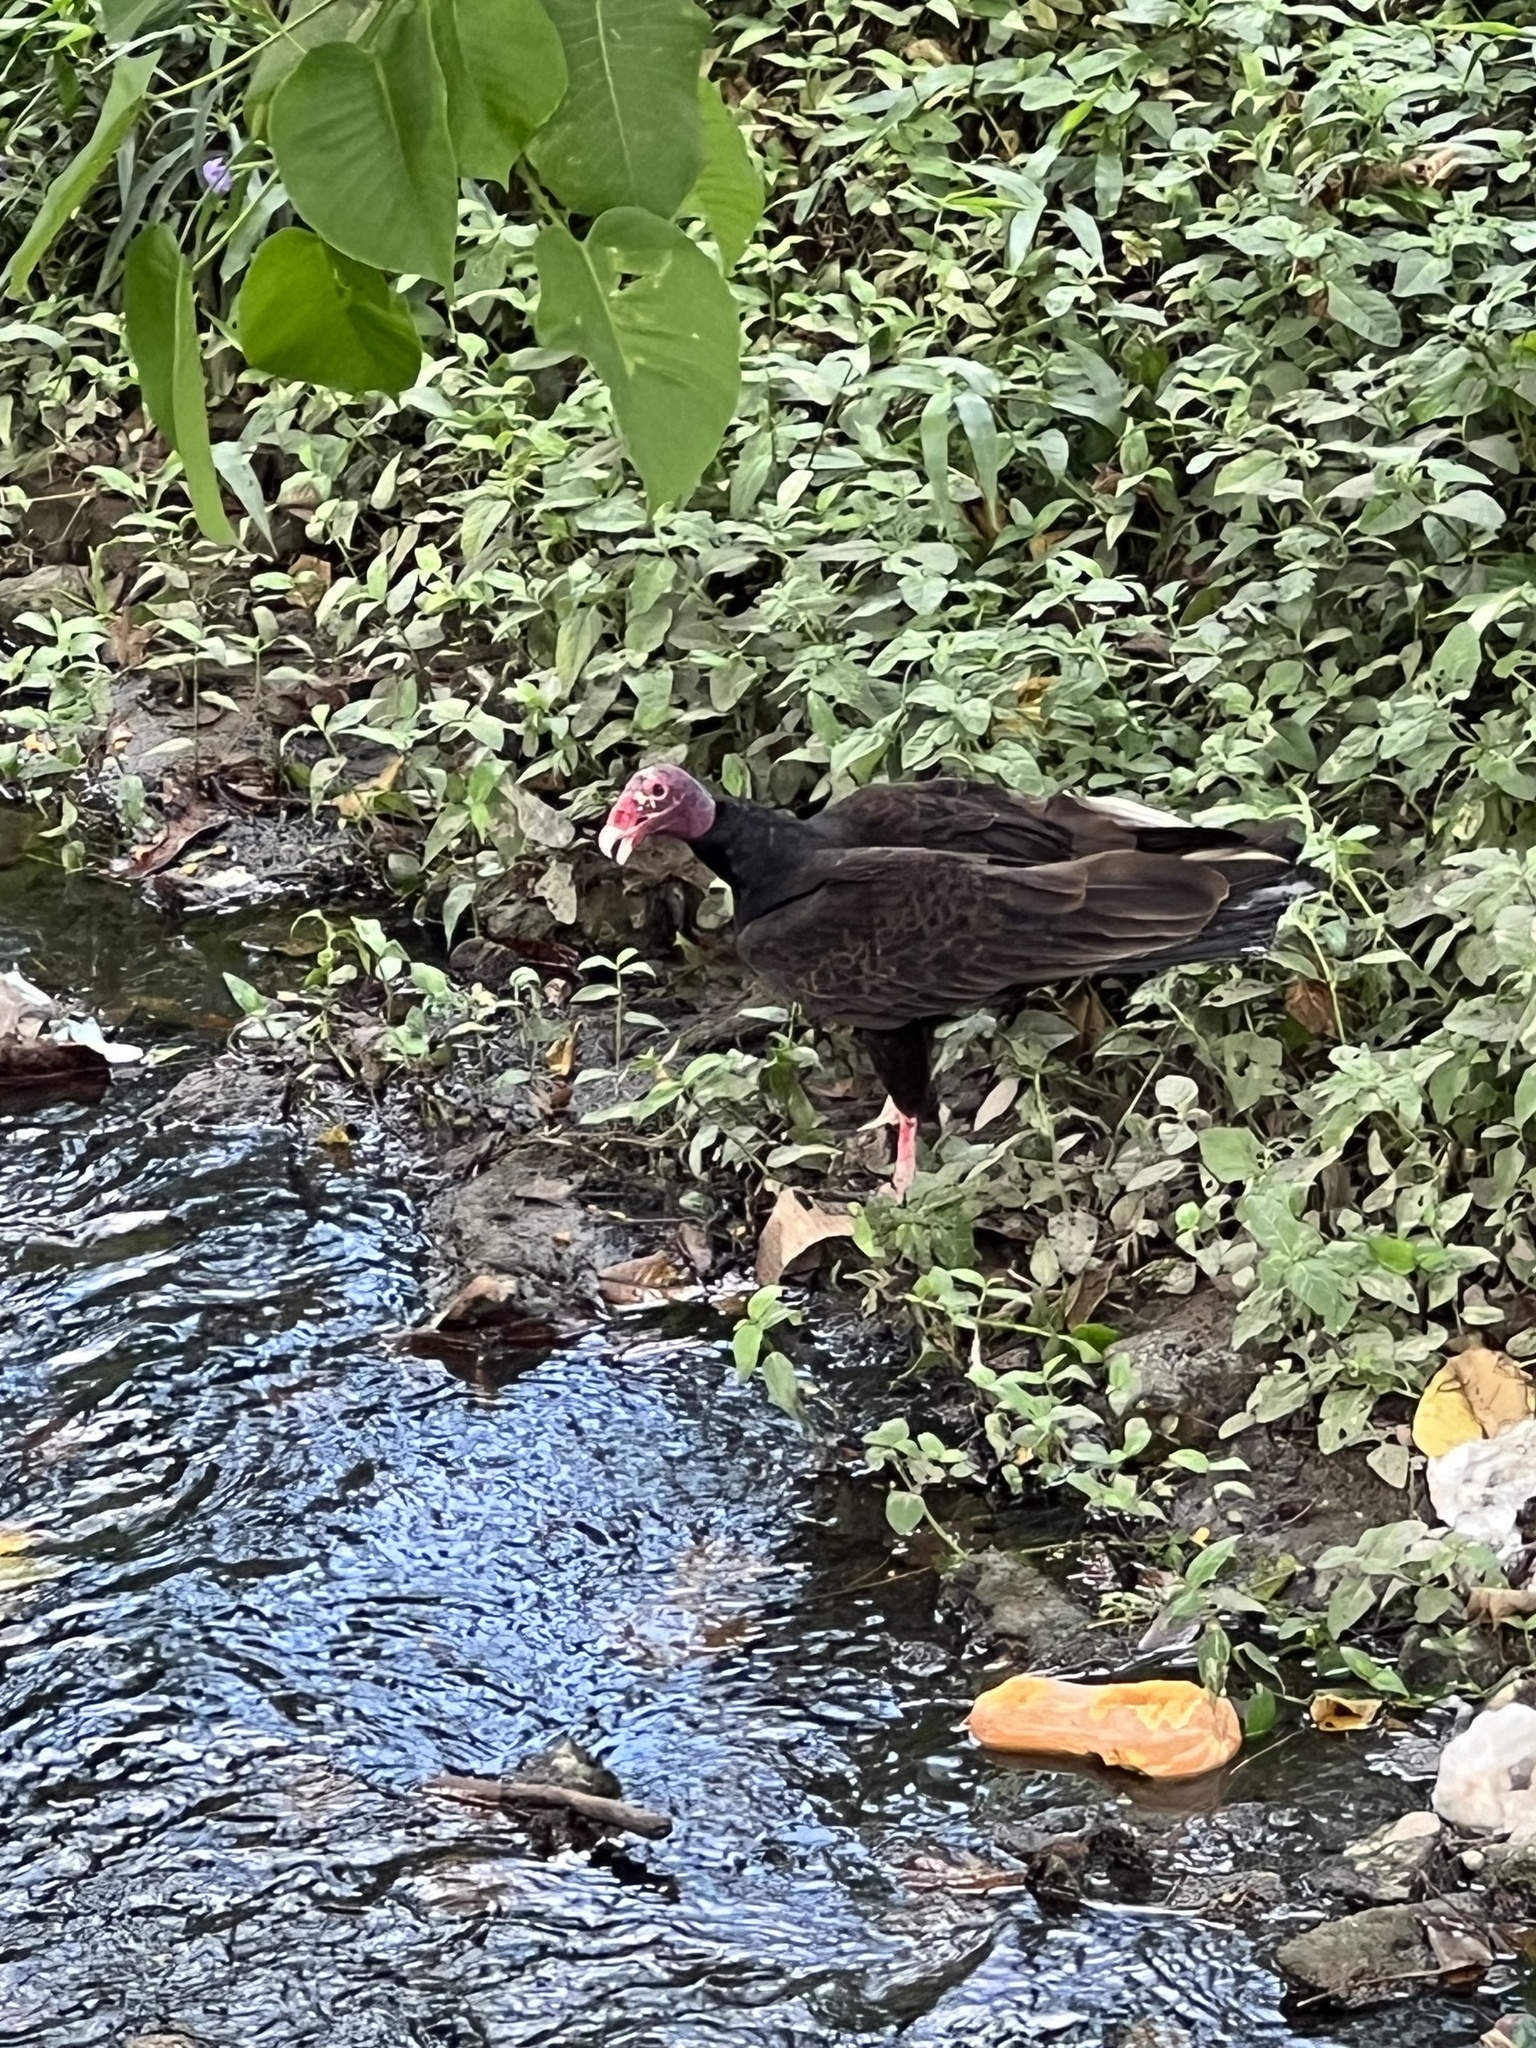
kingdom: Animalia
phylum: Chordata
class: Aves
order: Accipitriformes
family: Cathartidae
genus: Cathartes
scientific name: Cathartes aura
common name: Turkey vulture
